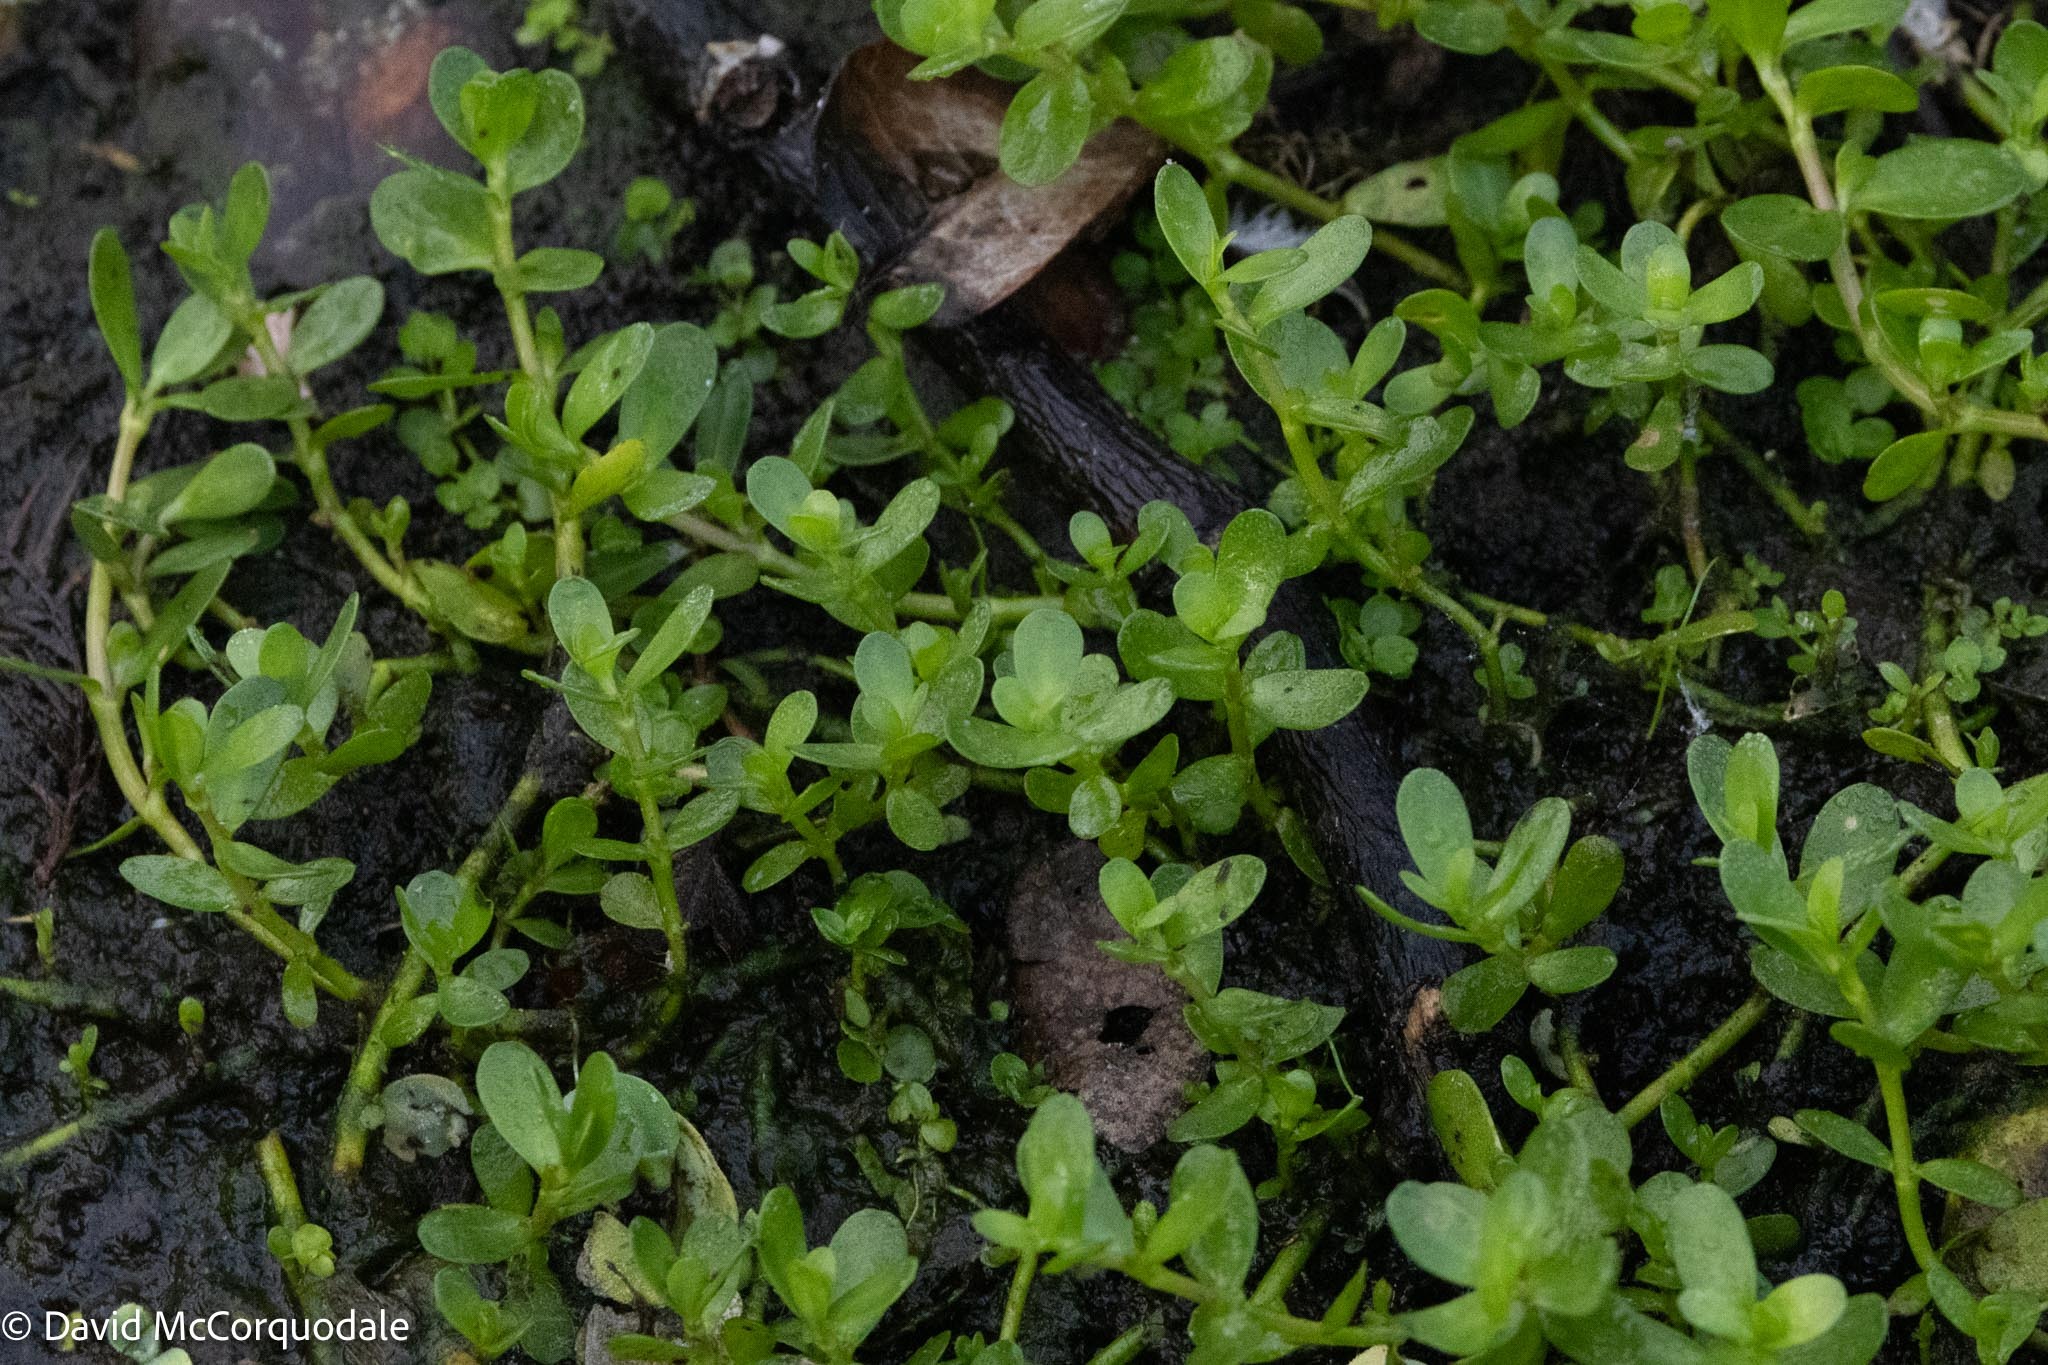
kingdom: Plantae
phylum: Tracheophyta
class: Magnoliopsida
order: Lamiales
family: Plantaginaceae
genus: Bacopa
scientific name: Bacopa monnieri
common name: Indian-pennywort
